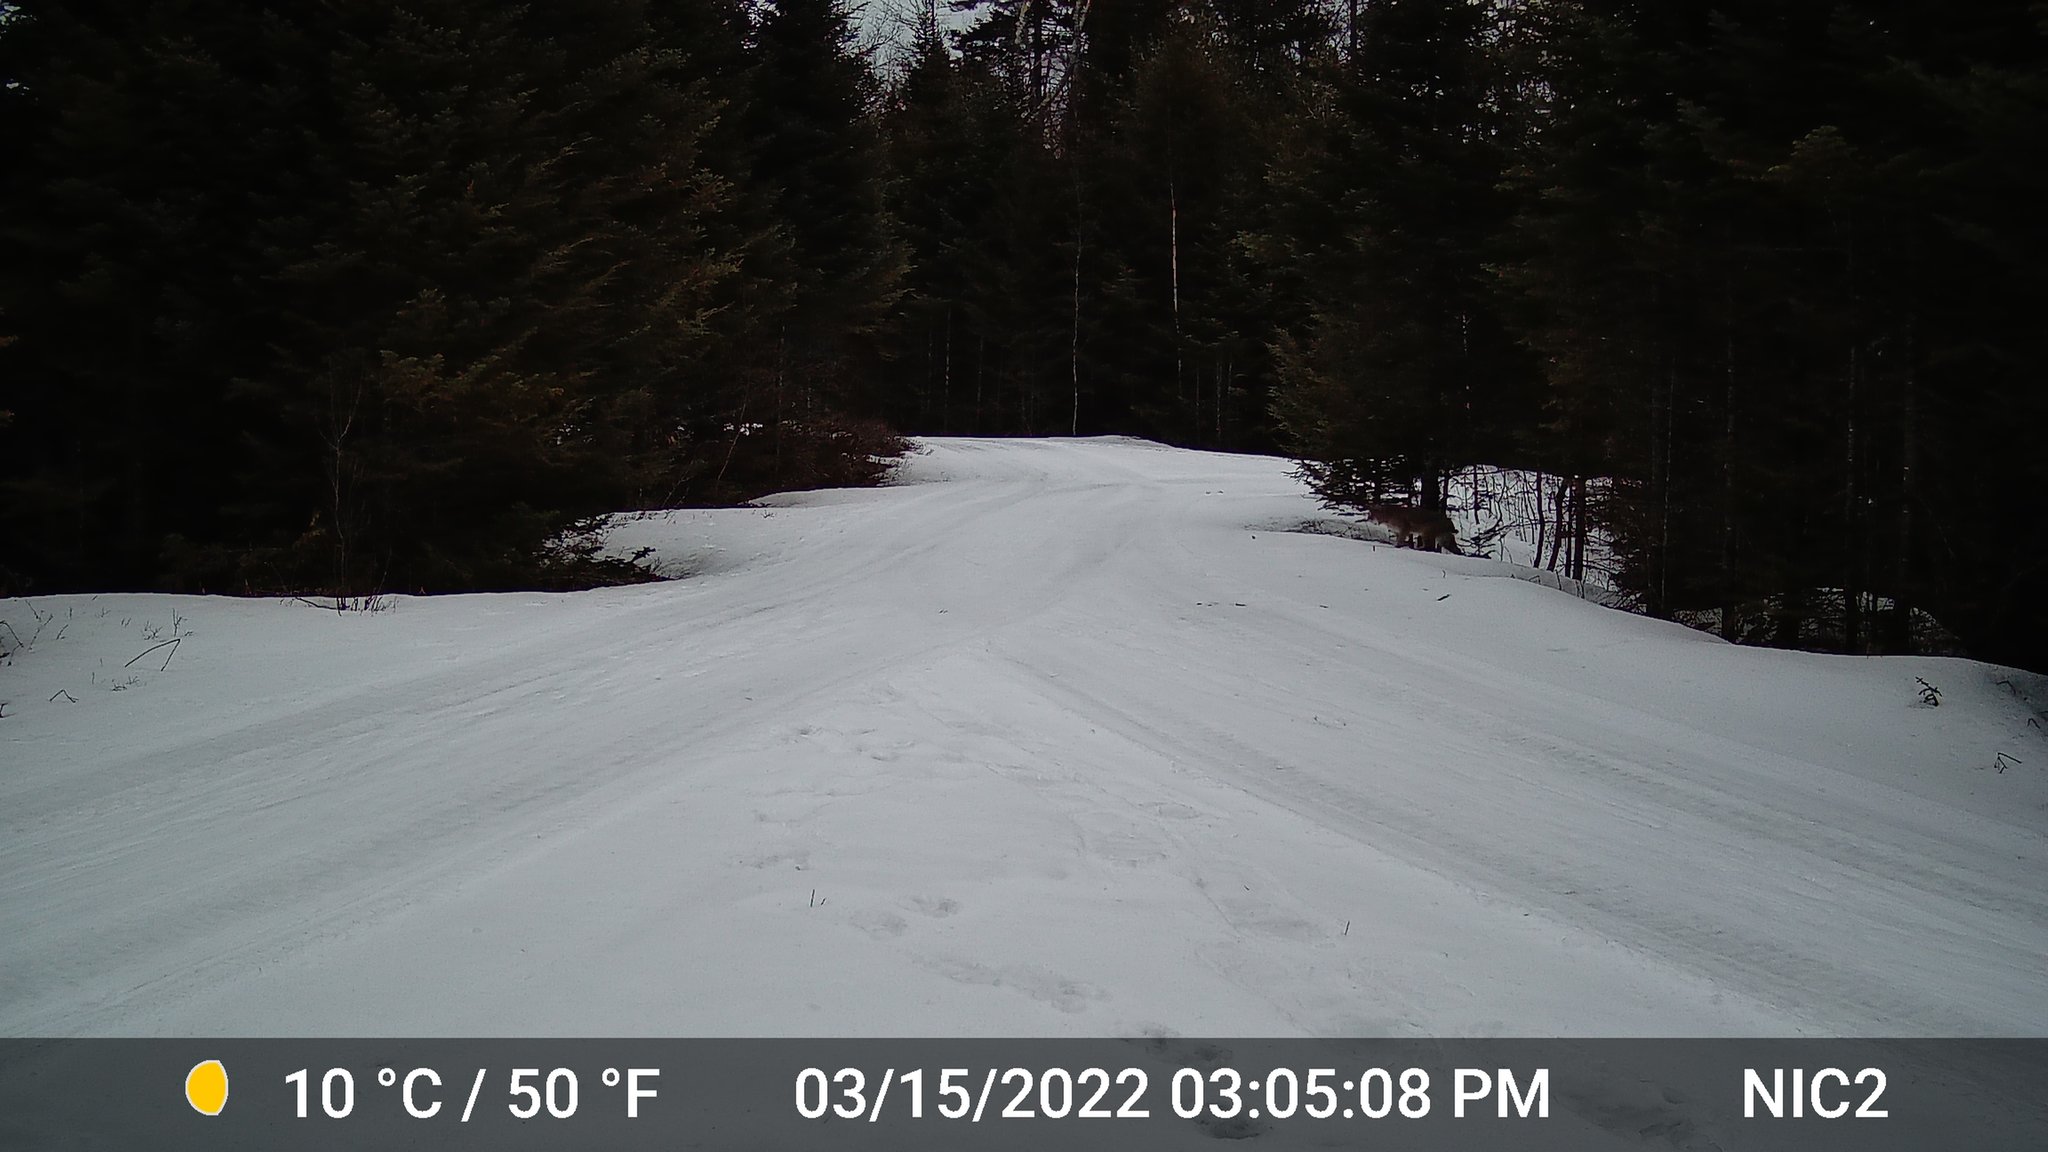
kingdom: Animalia
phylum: Chordata
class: Mammalia
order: Carnivora
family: Felidae
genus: Lynx
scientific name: Lynx rufus
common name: Bobcat
